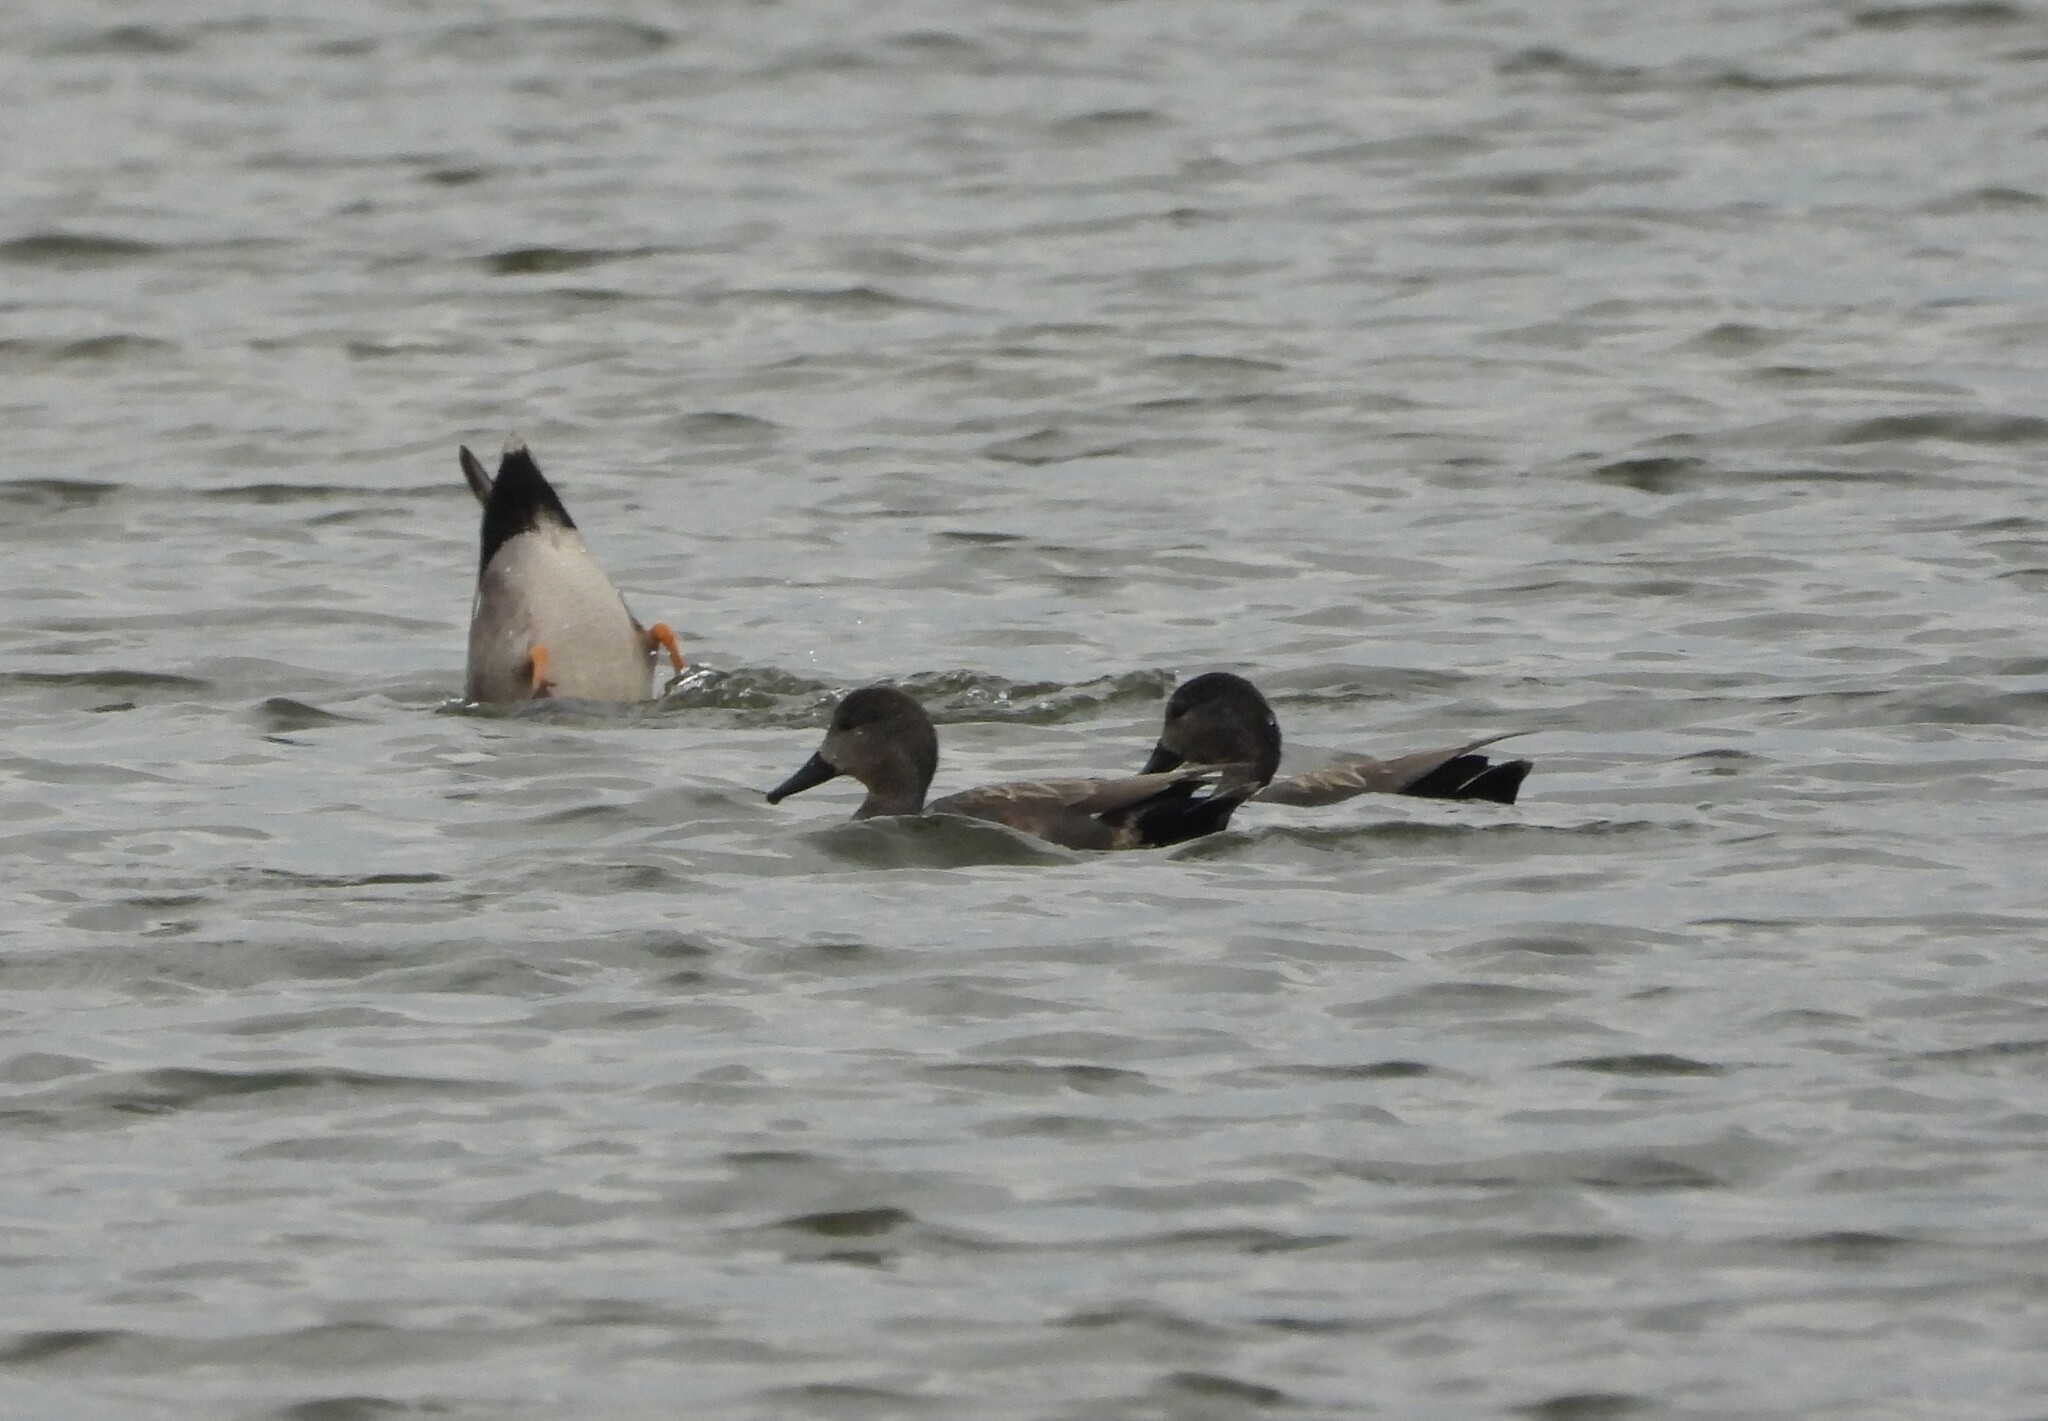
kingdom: Animalia
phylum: Chordata
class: Aves
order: Anseriformes
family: Anatidae
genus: Mareca
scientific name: Mareca strepera
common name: Gadwall
